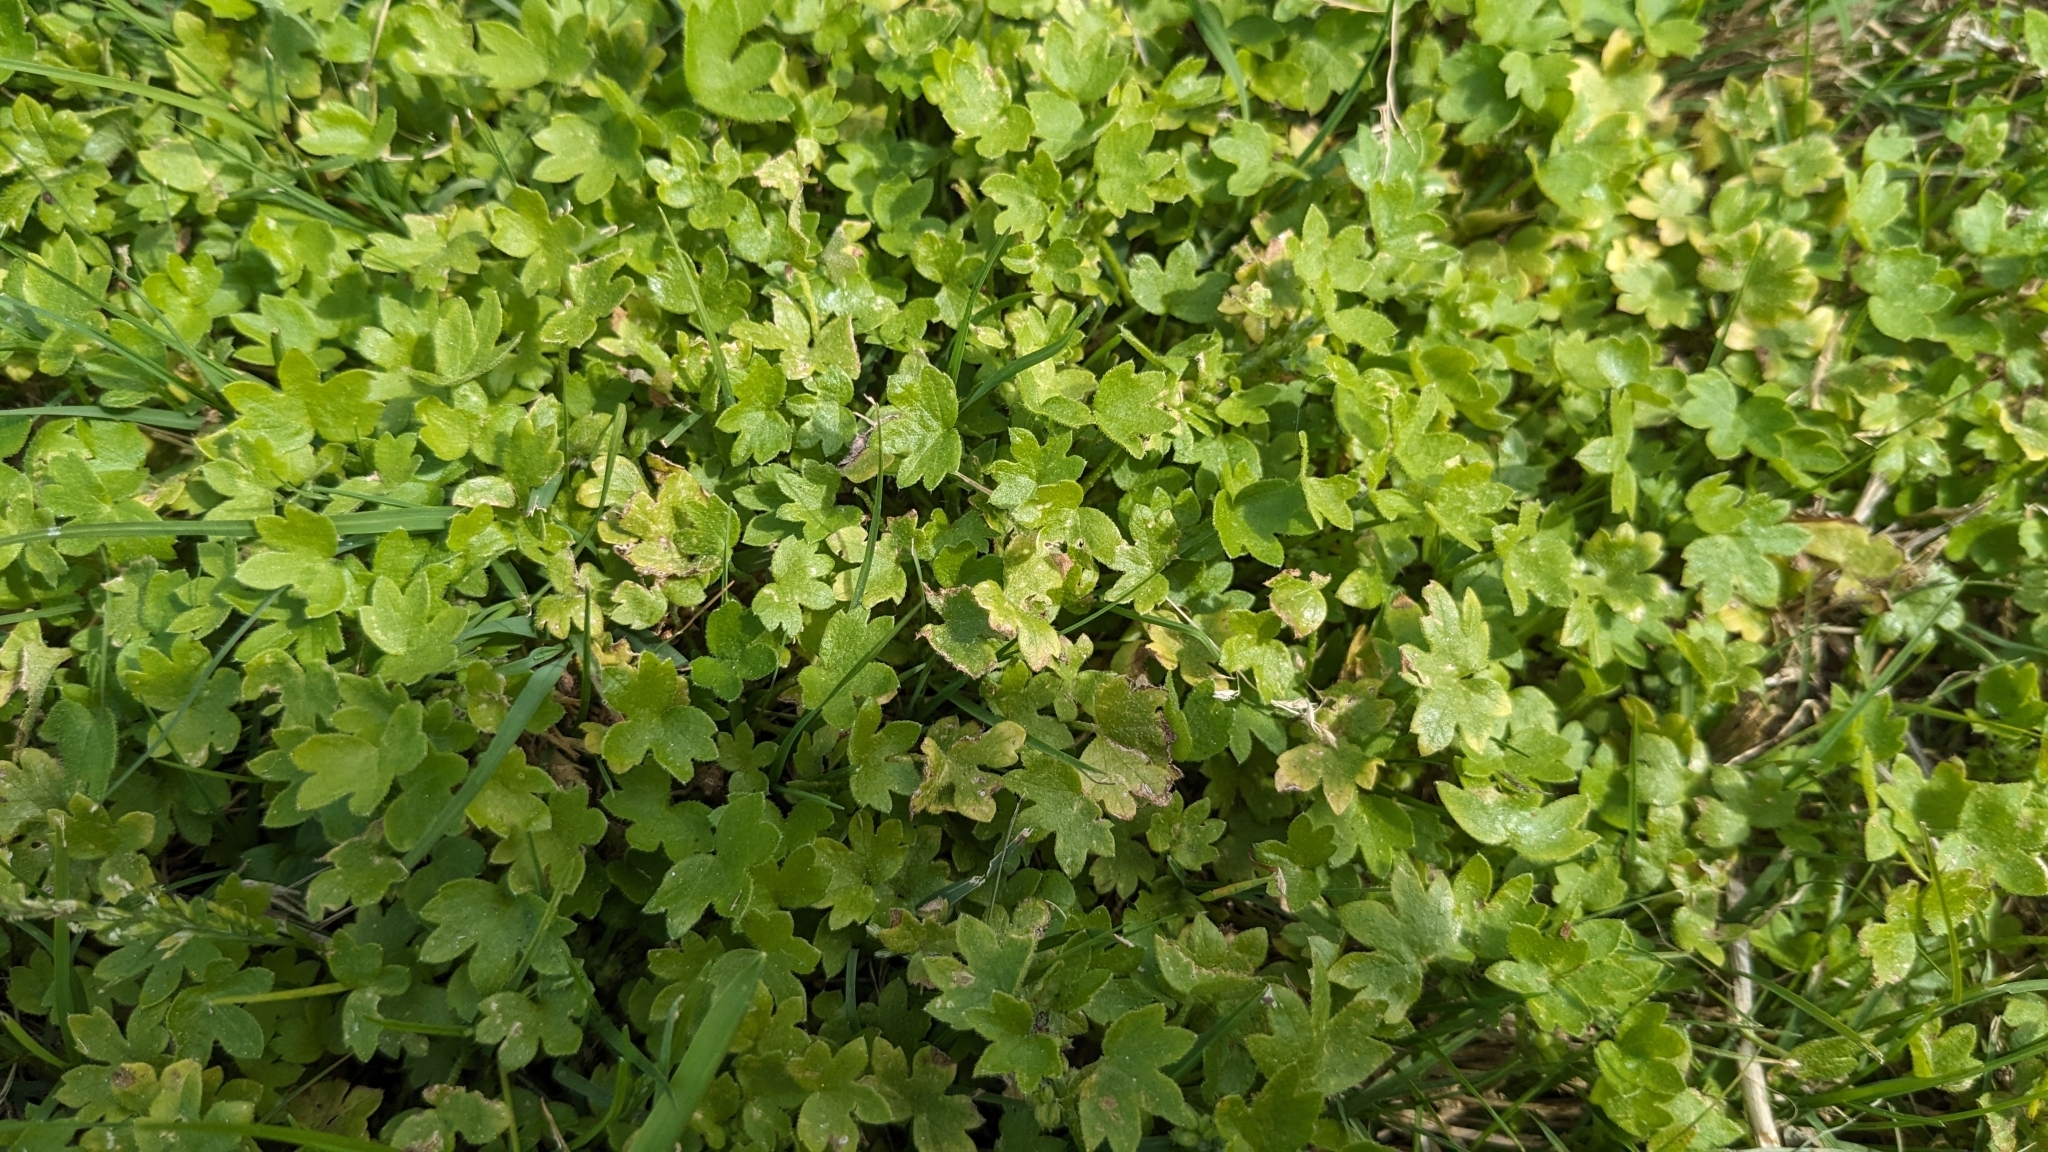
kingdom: Plantae
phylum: Tracheophyta
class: Magnoliopsida
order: Apiales
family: Apiaceae
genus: Bowlesia
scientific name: Bowlesia incana
